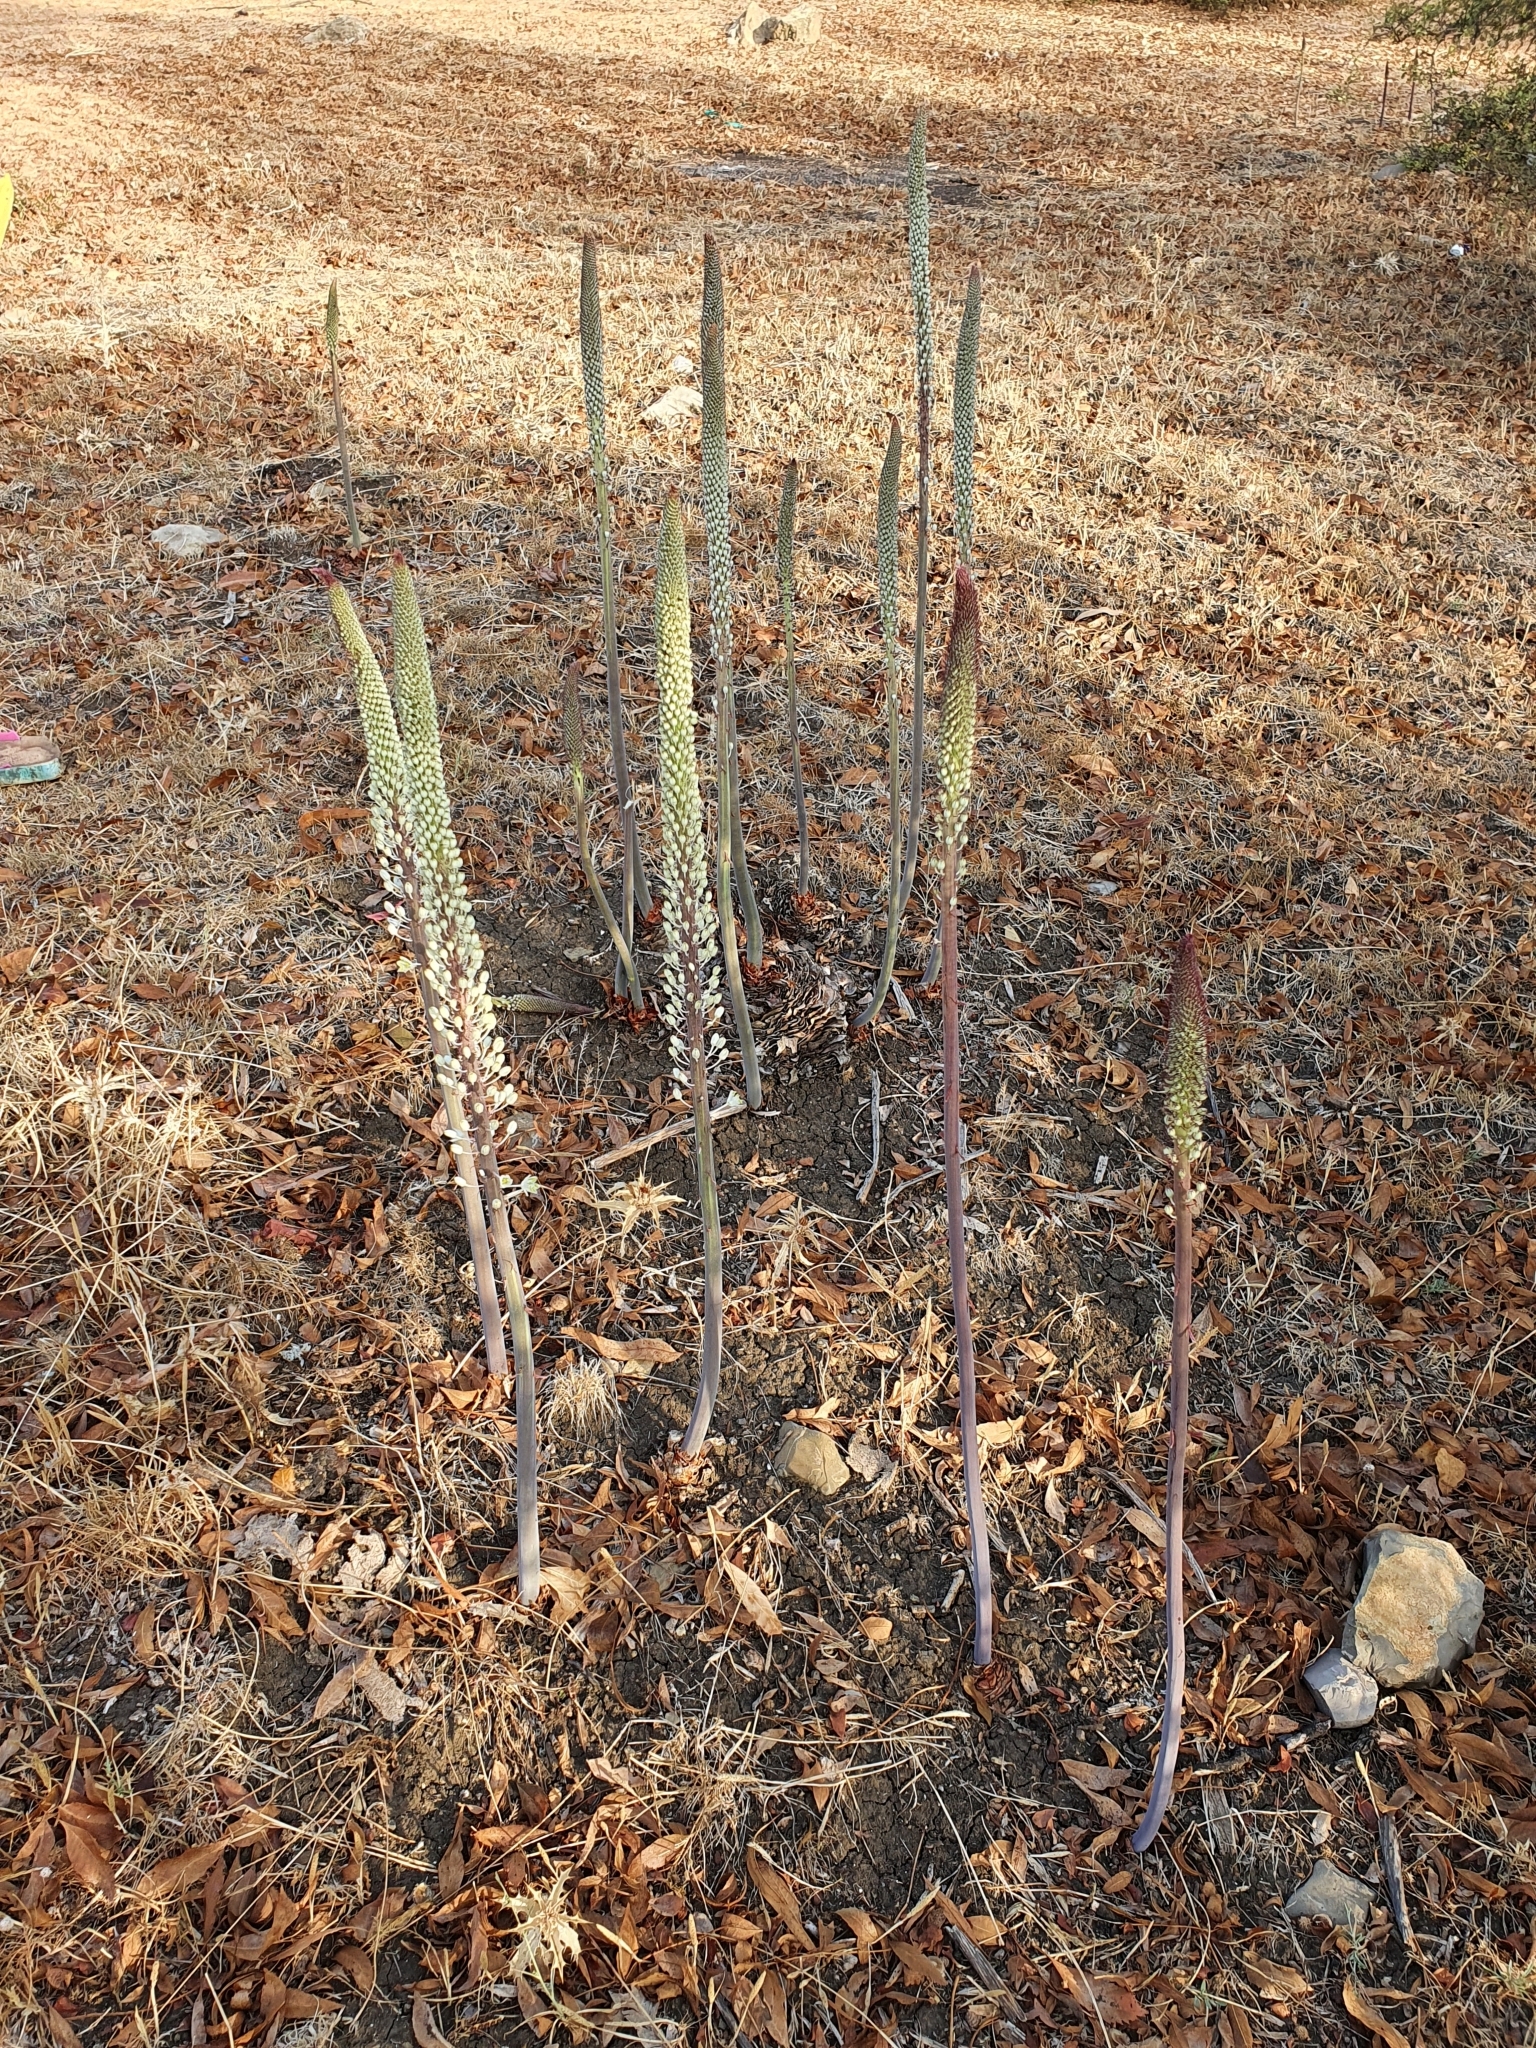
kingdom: Plantae
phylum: Tracheophyta
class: Liliopsida
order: Asparagales
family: Asparagaceae
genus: Drimia
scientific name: Drimia numidica
